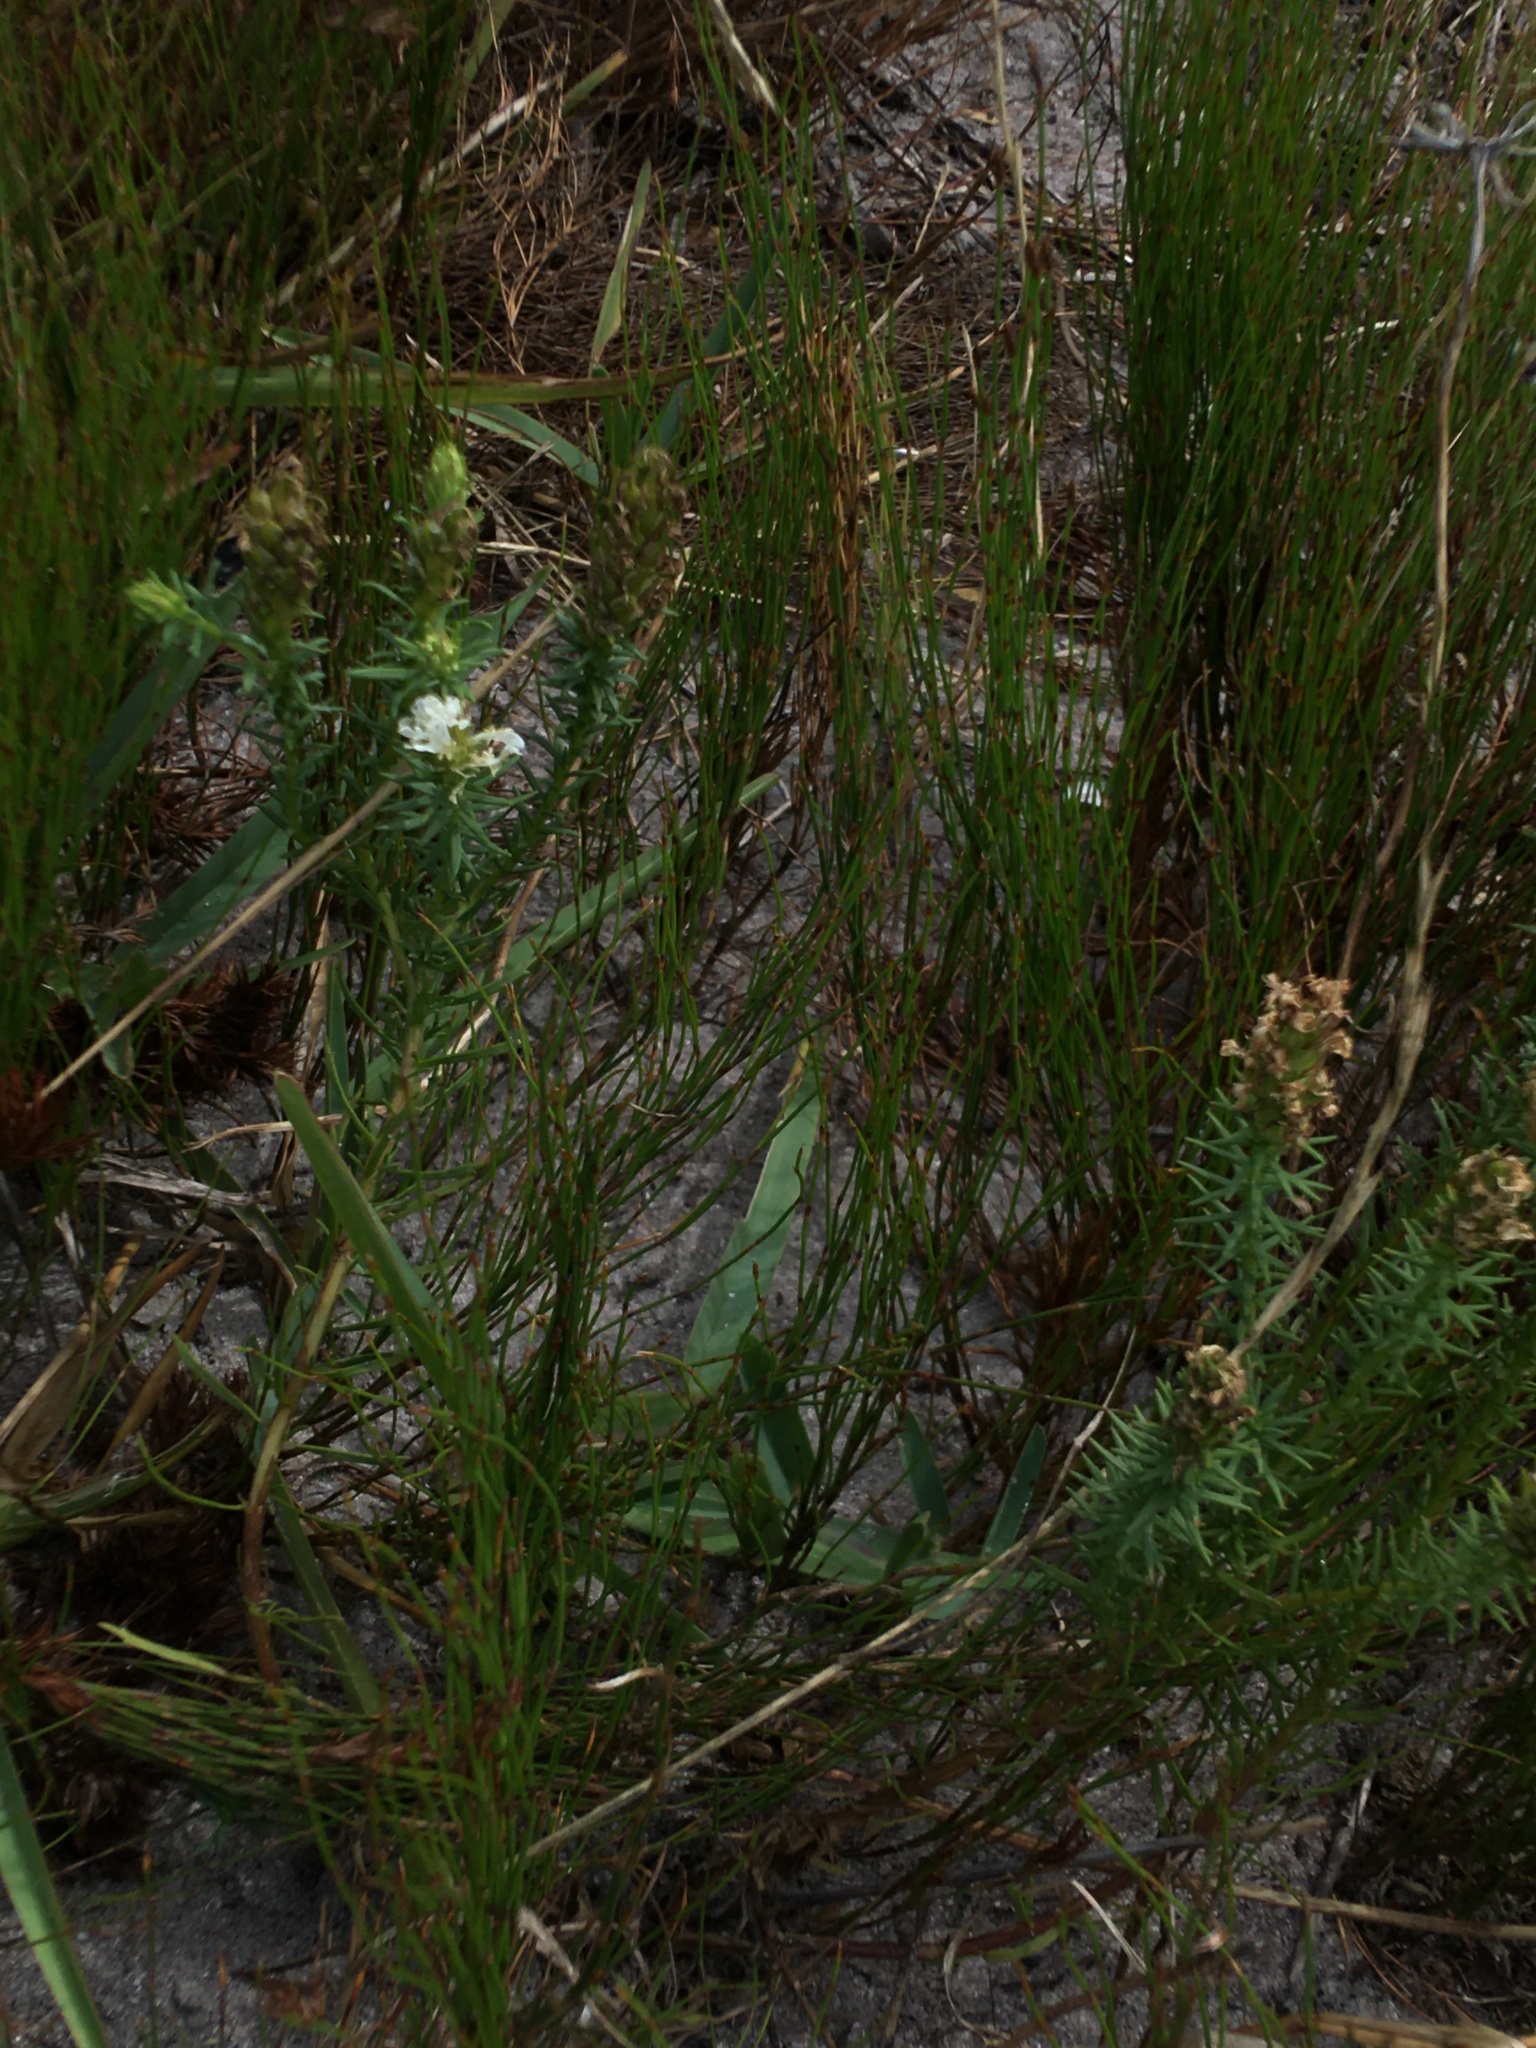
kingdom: Plantae
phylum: Tracheophyta
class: Magnoliopsida
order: Lamiales
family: Scrophulariaceae
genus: Dischisma
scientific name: Dischisma ciliatum
